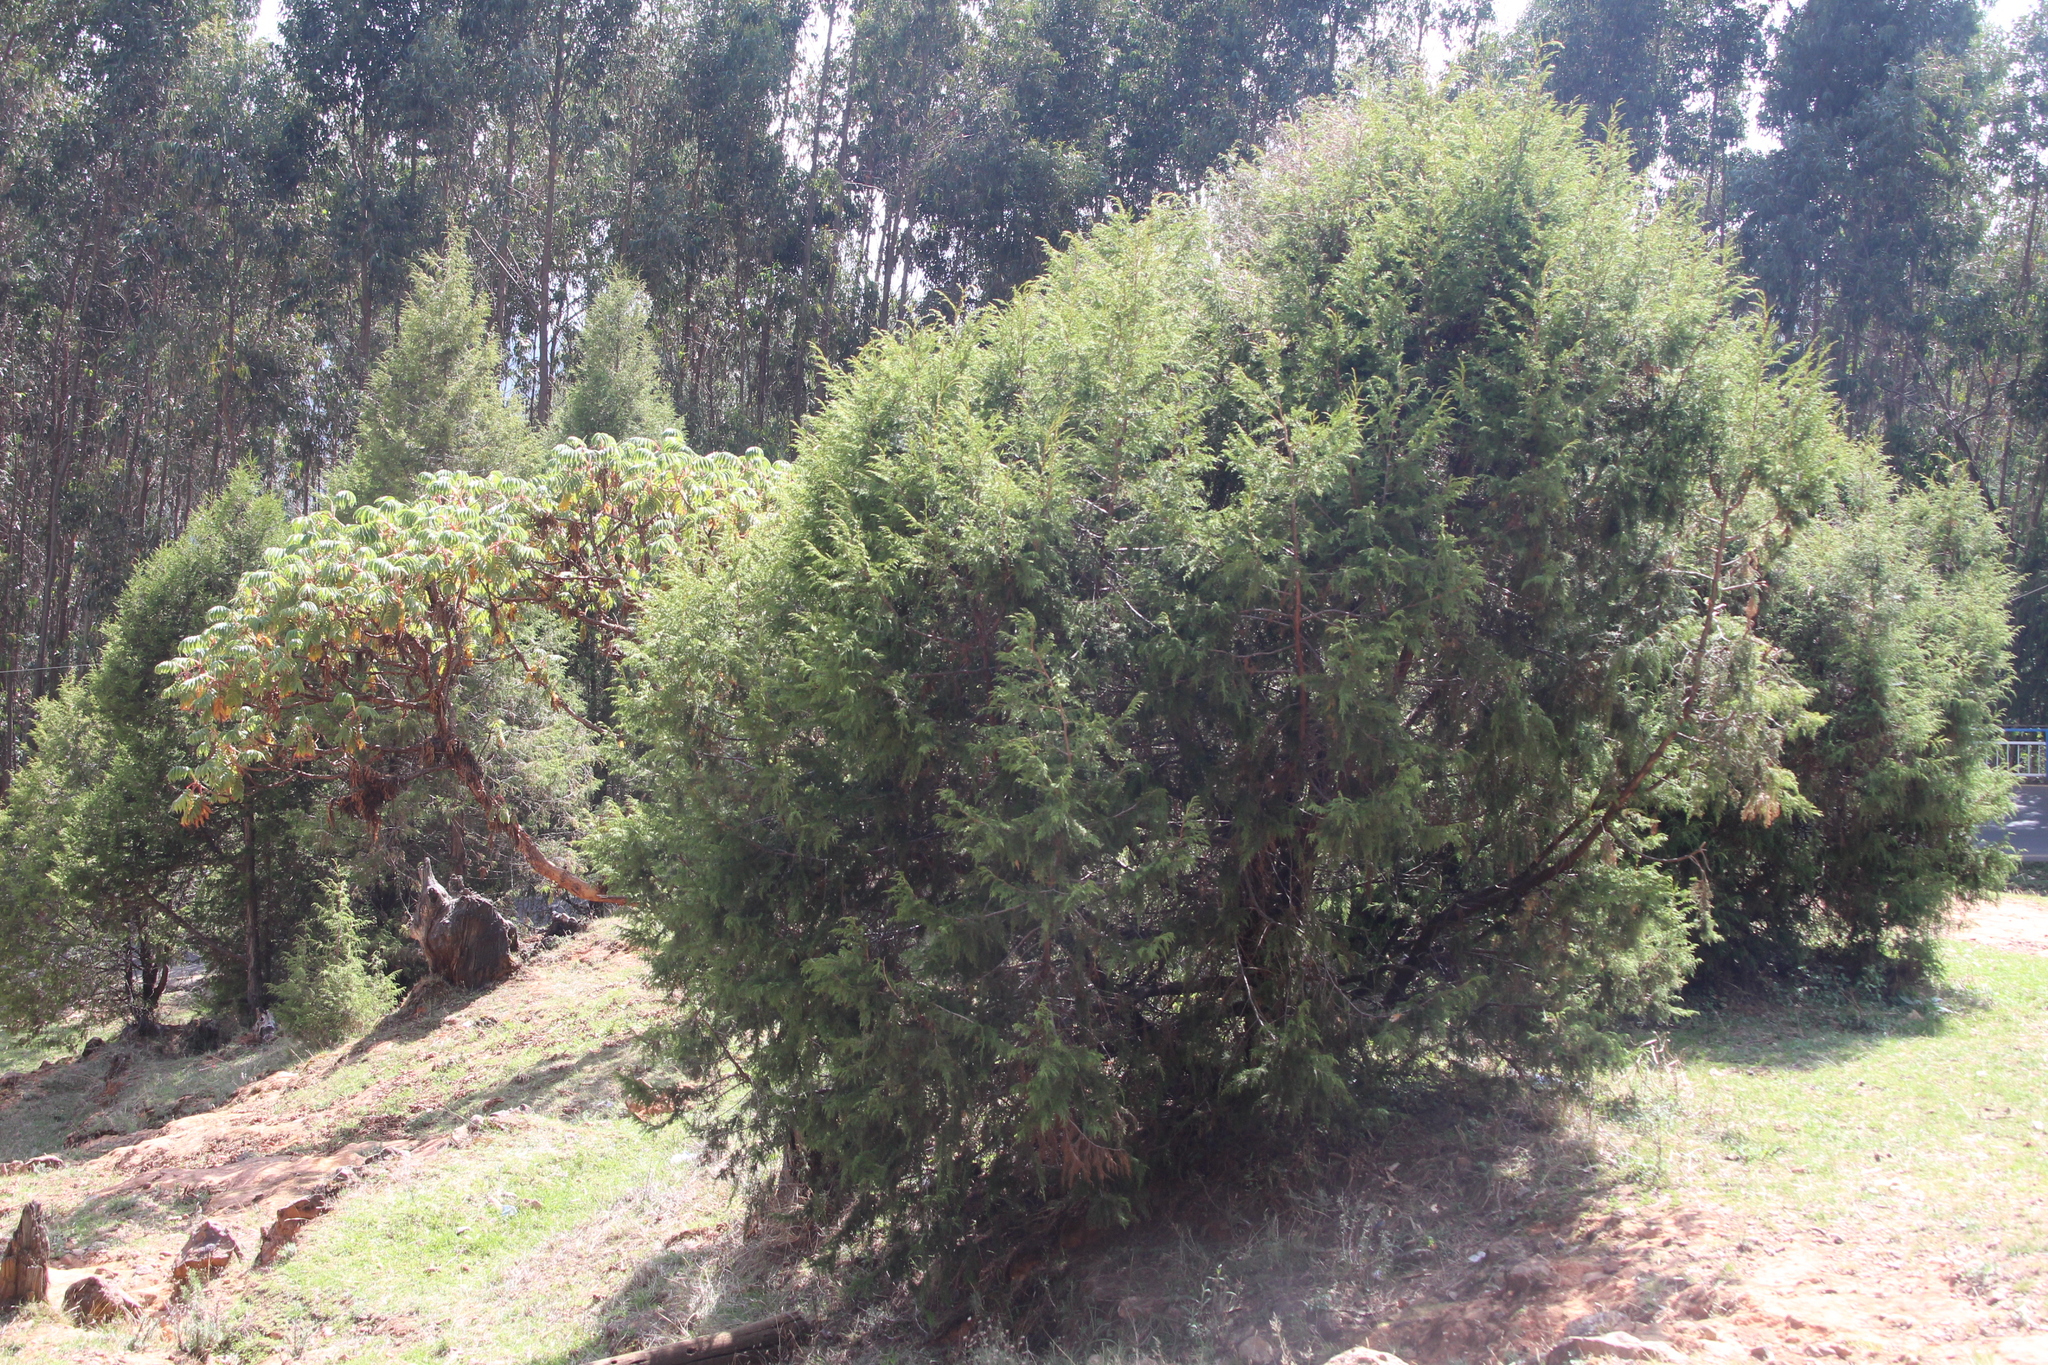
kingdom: Plantae
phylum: Tracheophyta
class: Pinopsida
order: Pinales
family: Cupressaceae
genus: Juniperus
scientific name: Juniperus procera
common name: African juniper
